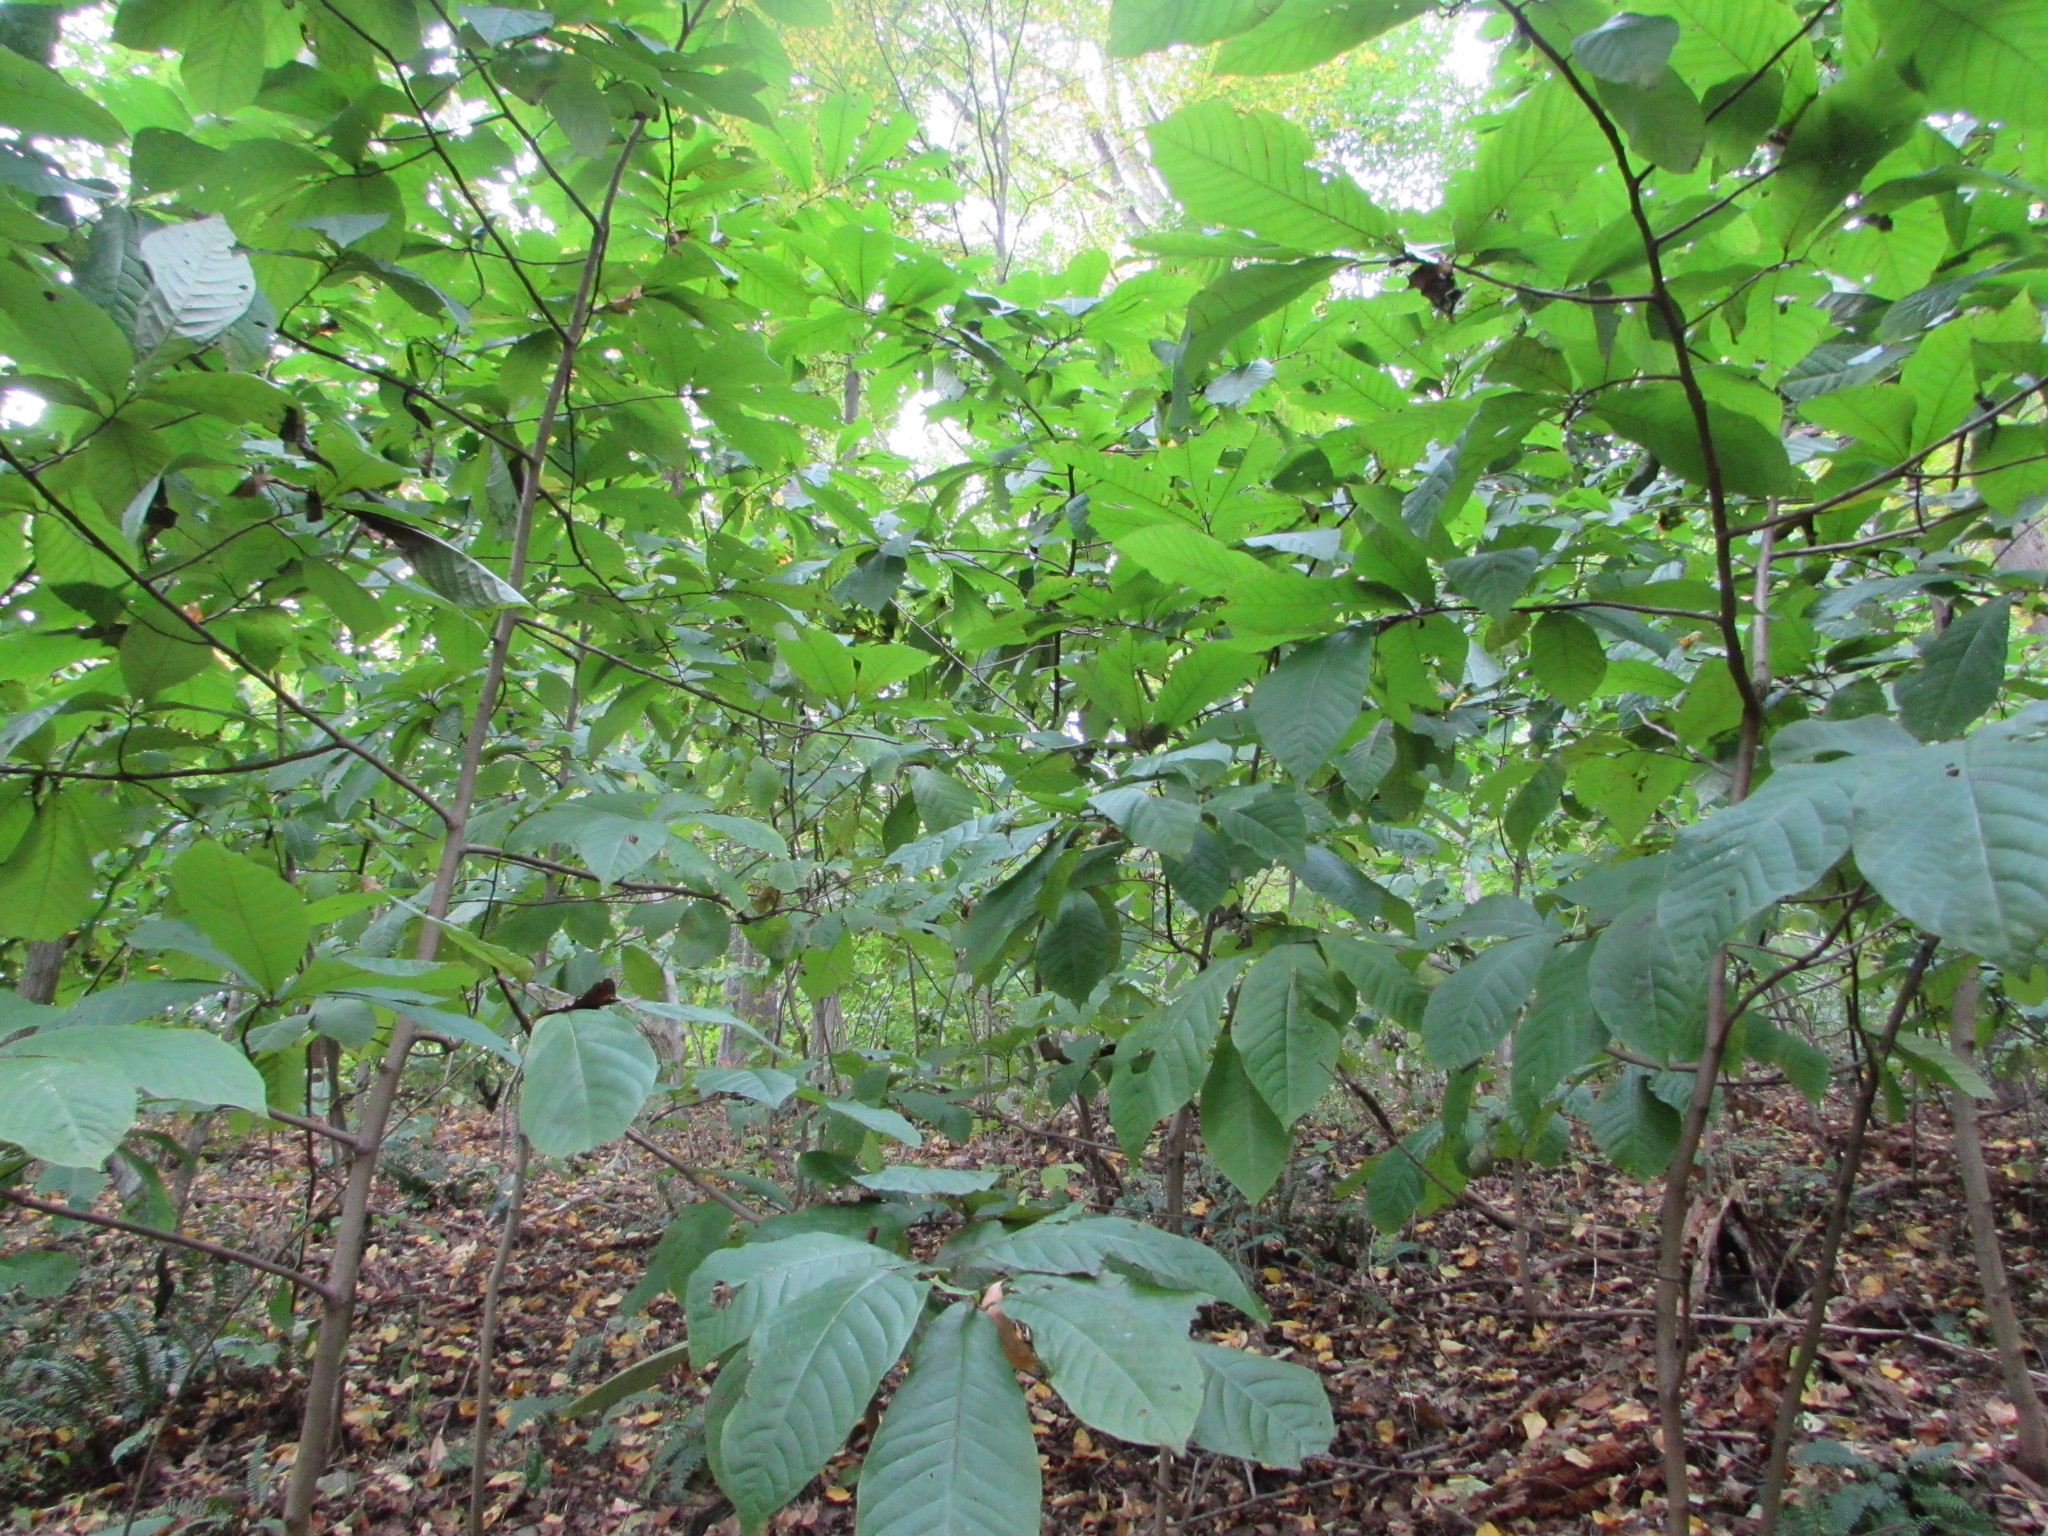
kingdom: Plantae
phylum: Tracheophyta
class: Magnoliopsida
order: Magnoliales
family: Annonaceae
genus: Asimina
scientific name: Asimina triloba
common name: Dog-banana
